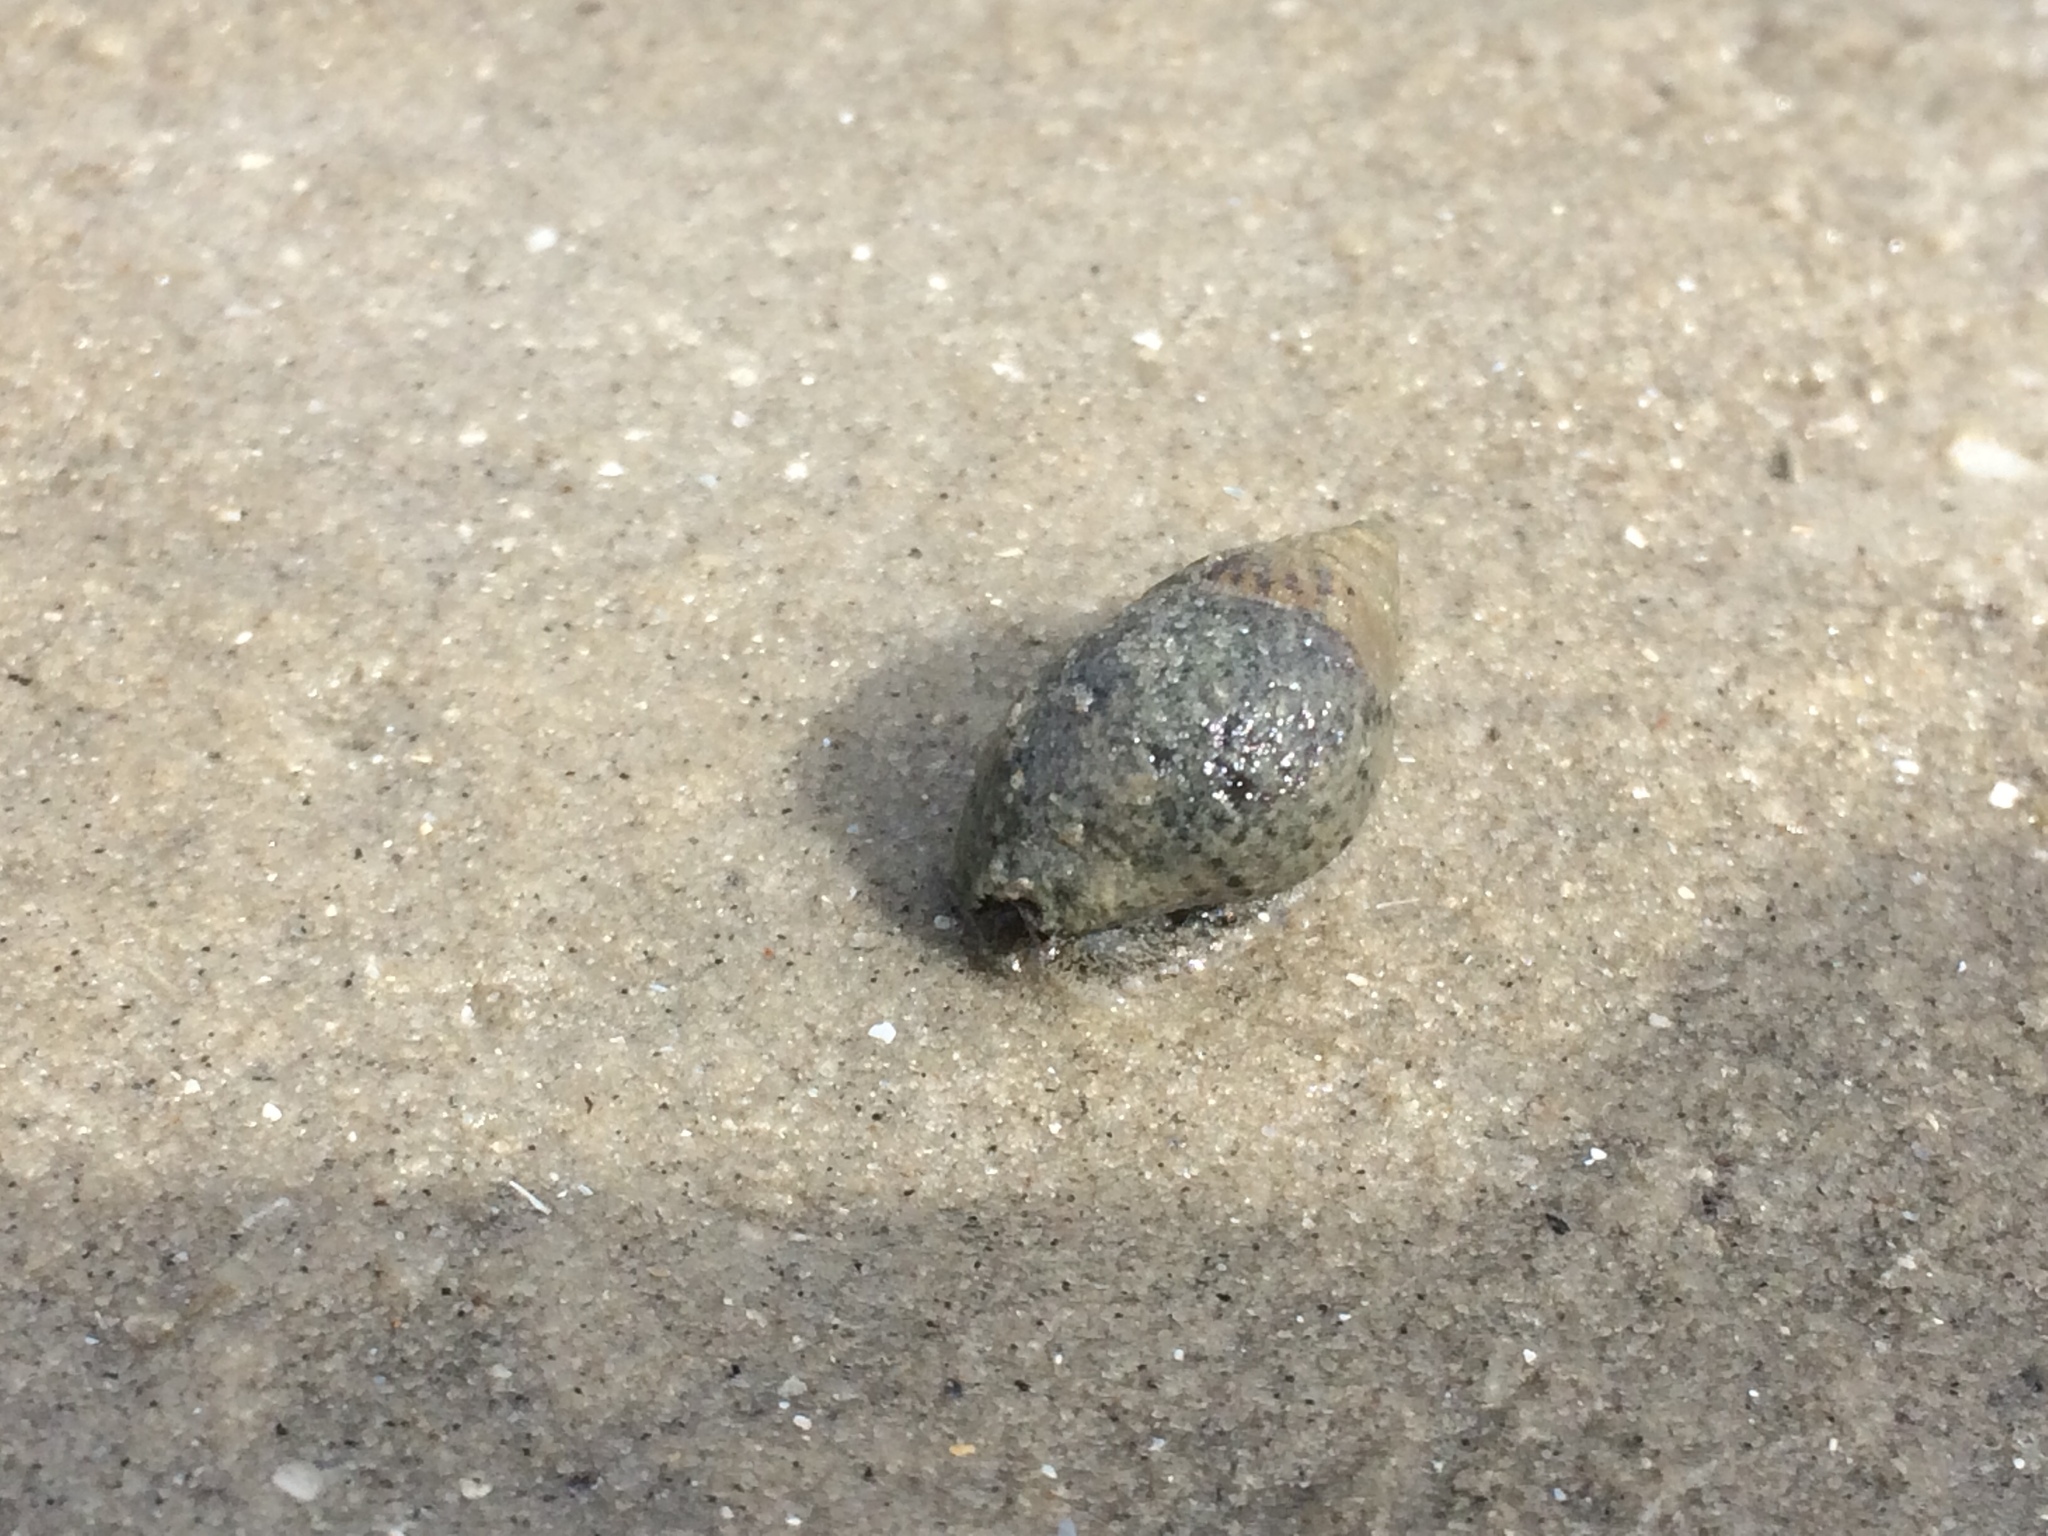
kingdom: Animalia
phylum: Mollusca
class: Gastropoda
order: Neogastropoda
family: Nassariidae
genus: Ilyanassa
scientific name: Ilyanassa obsoleta
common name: Eastern mudsnail
